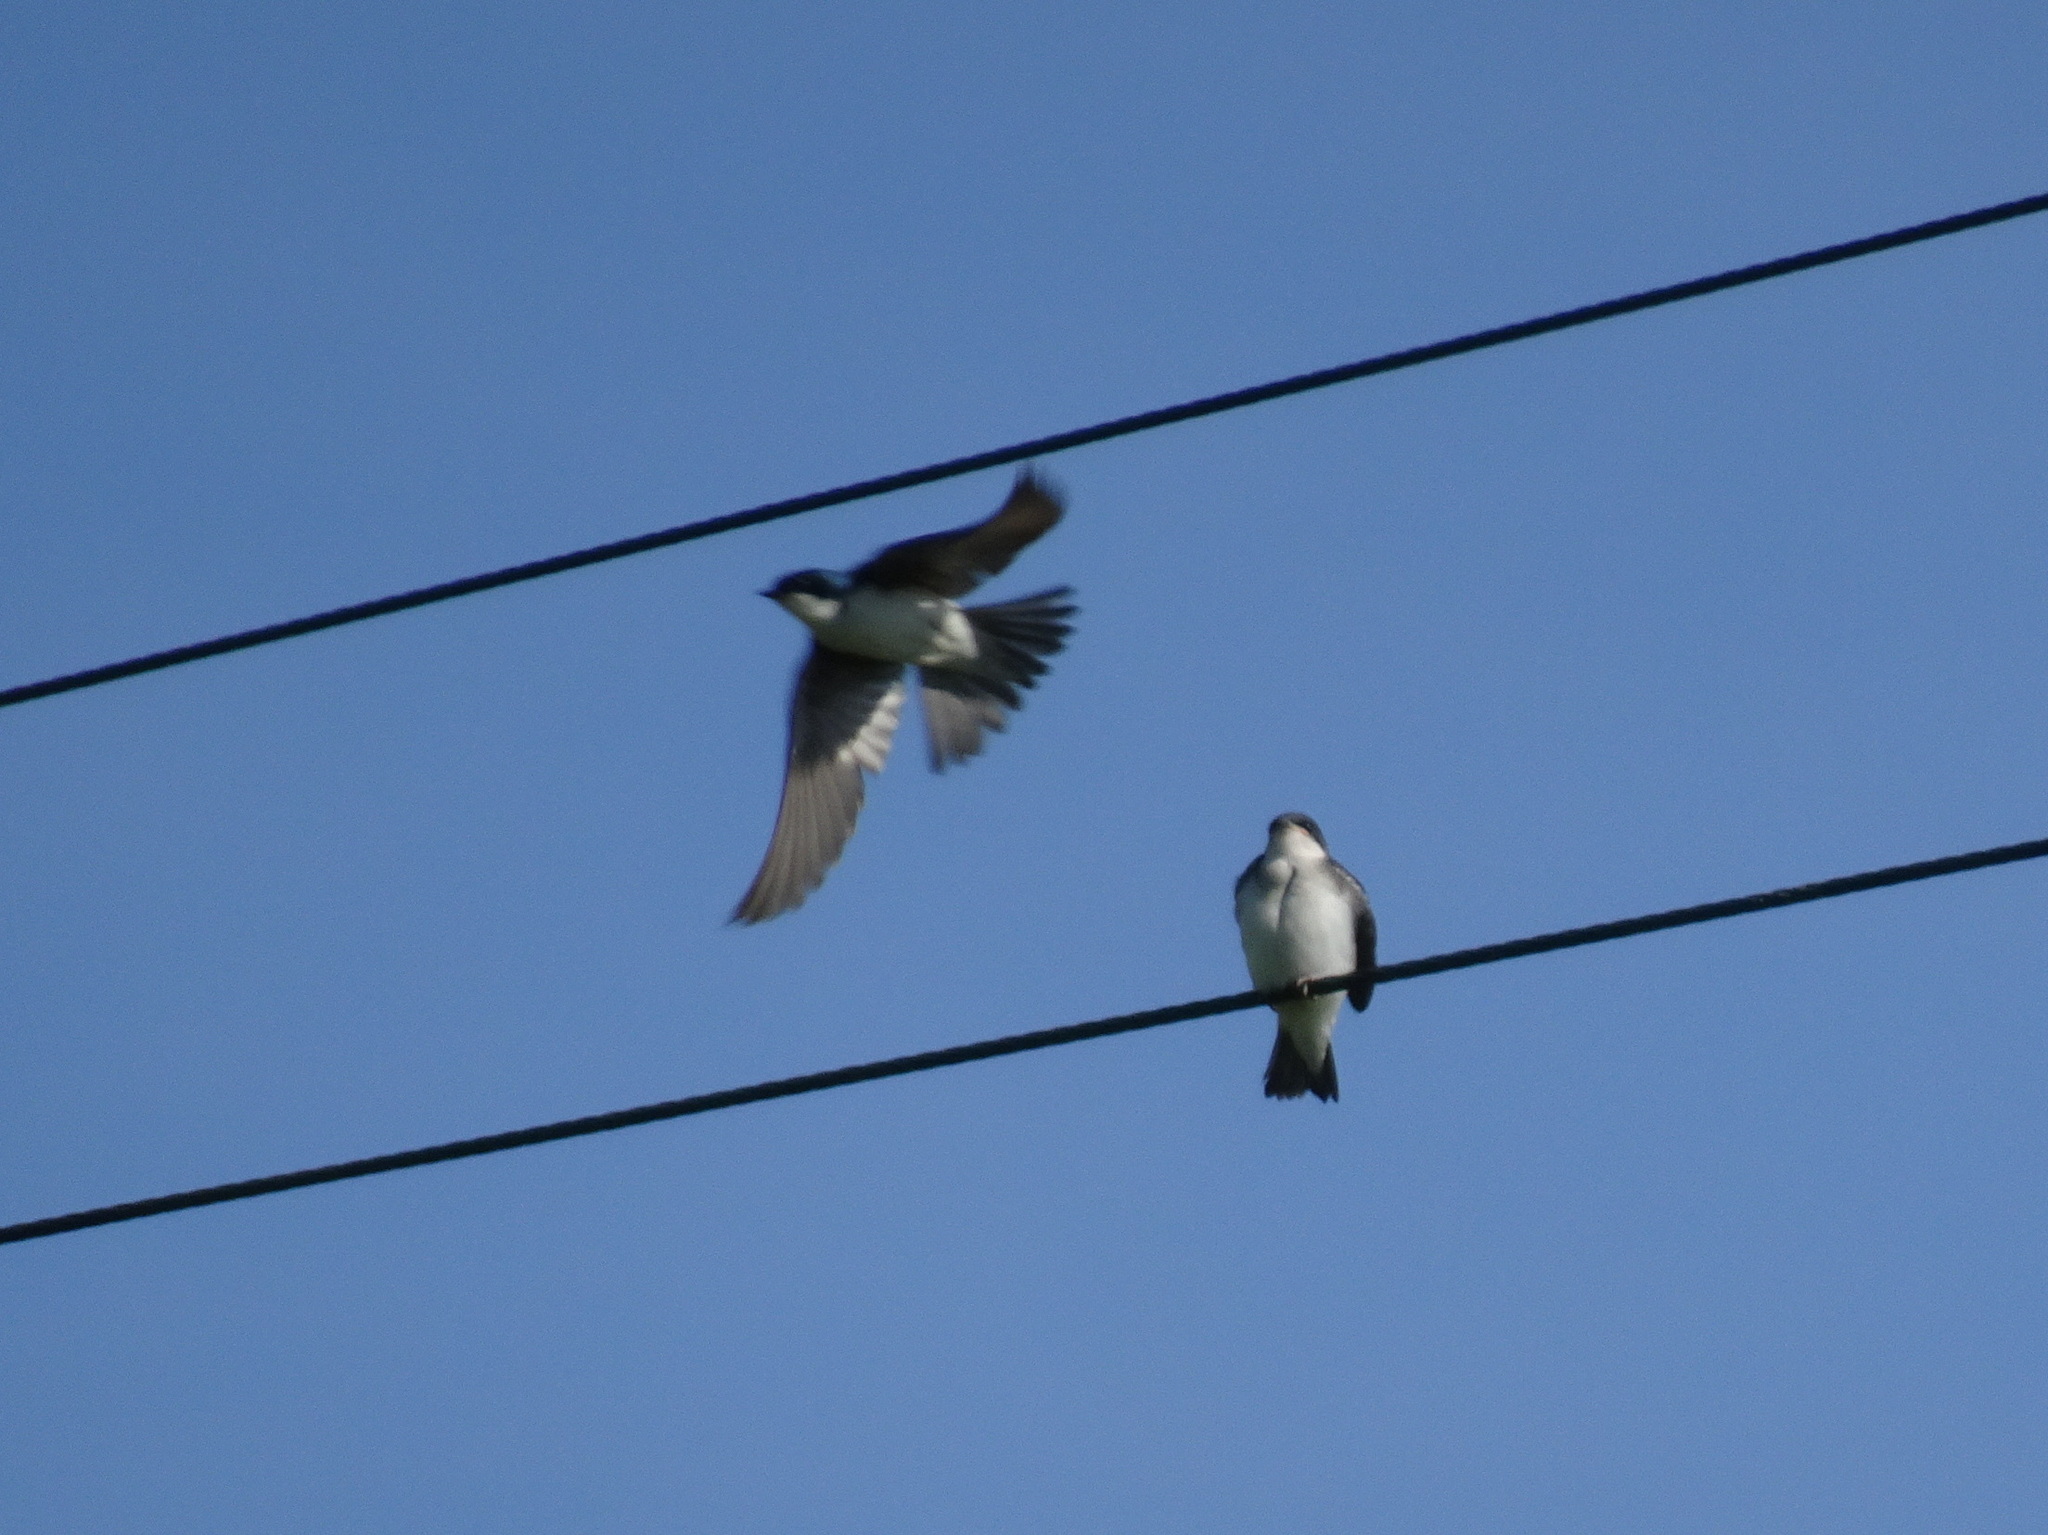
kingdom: Animalia
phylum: Chordata
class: Aves
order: Passeriformes
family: Hirundinidae
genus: Tachycineta
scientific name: Tachycineta bicolor
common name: Tree swallow
